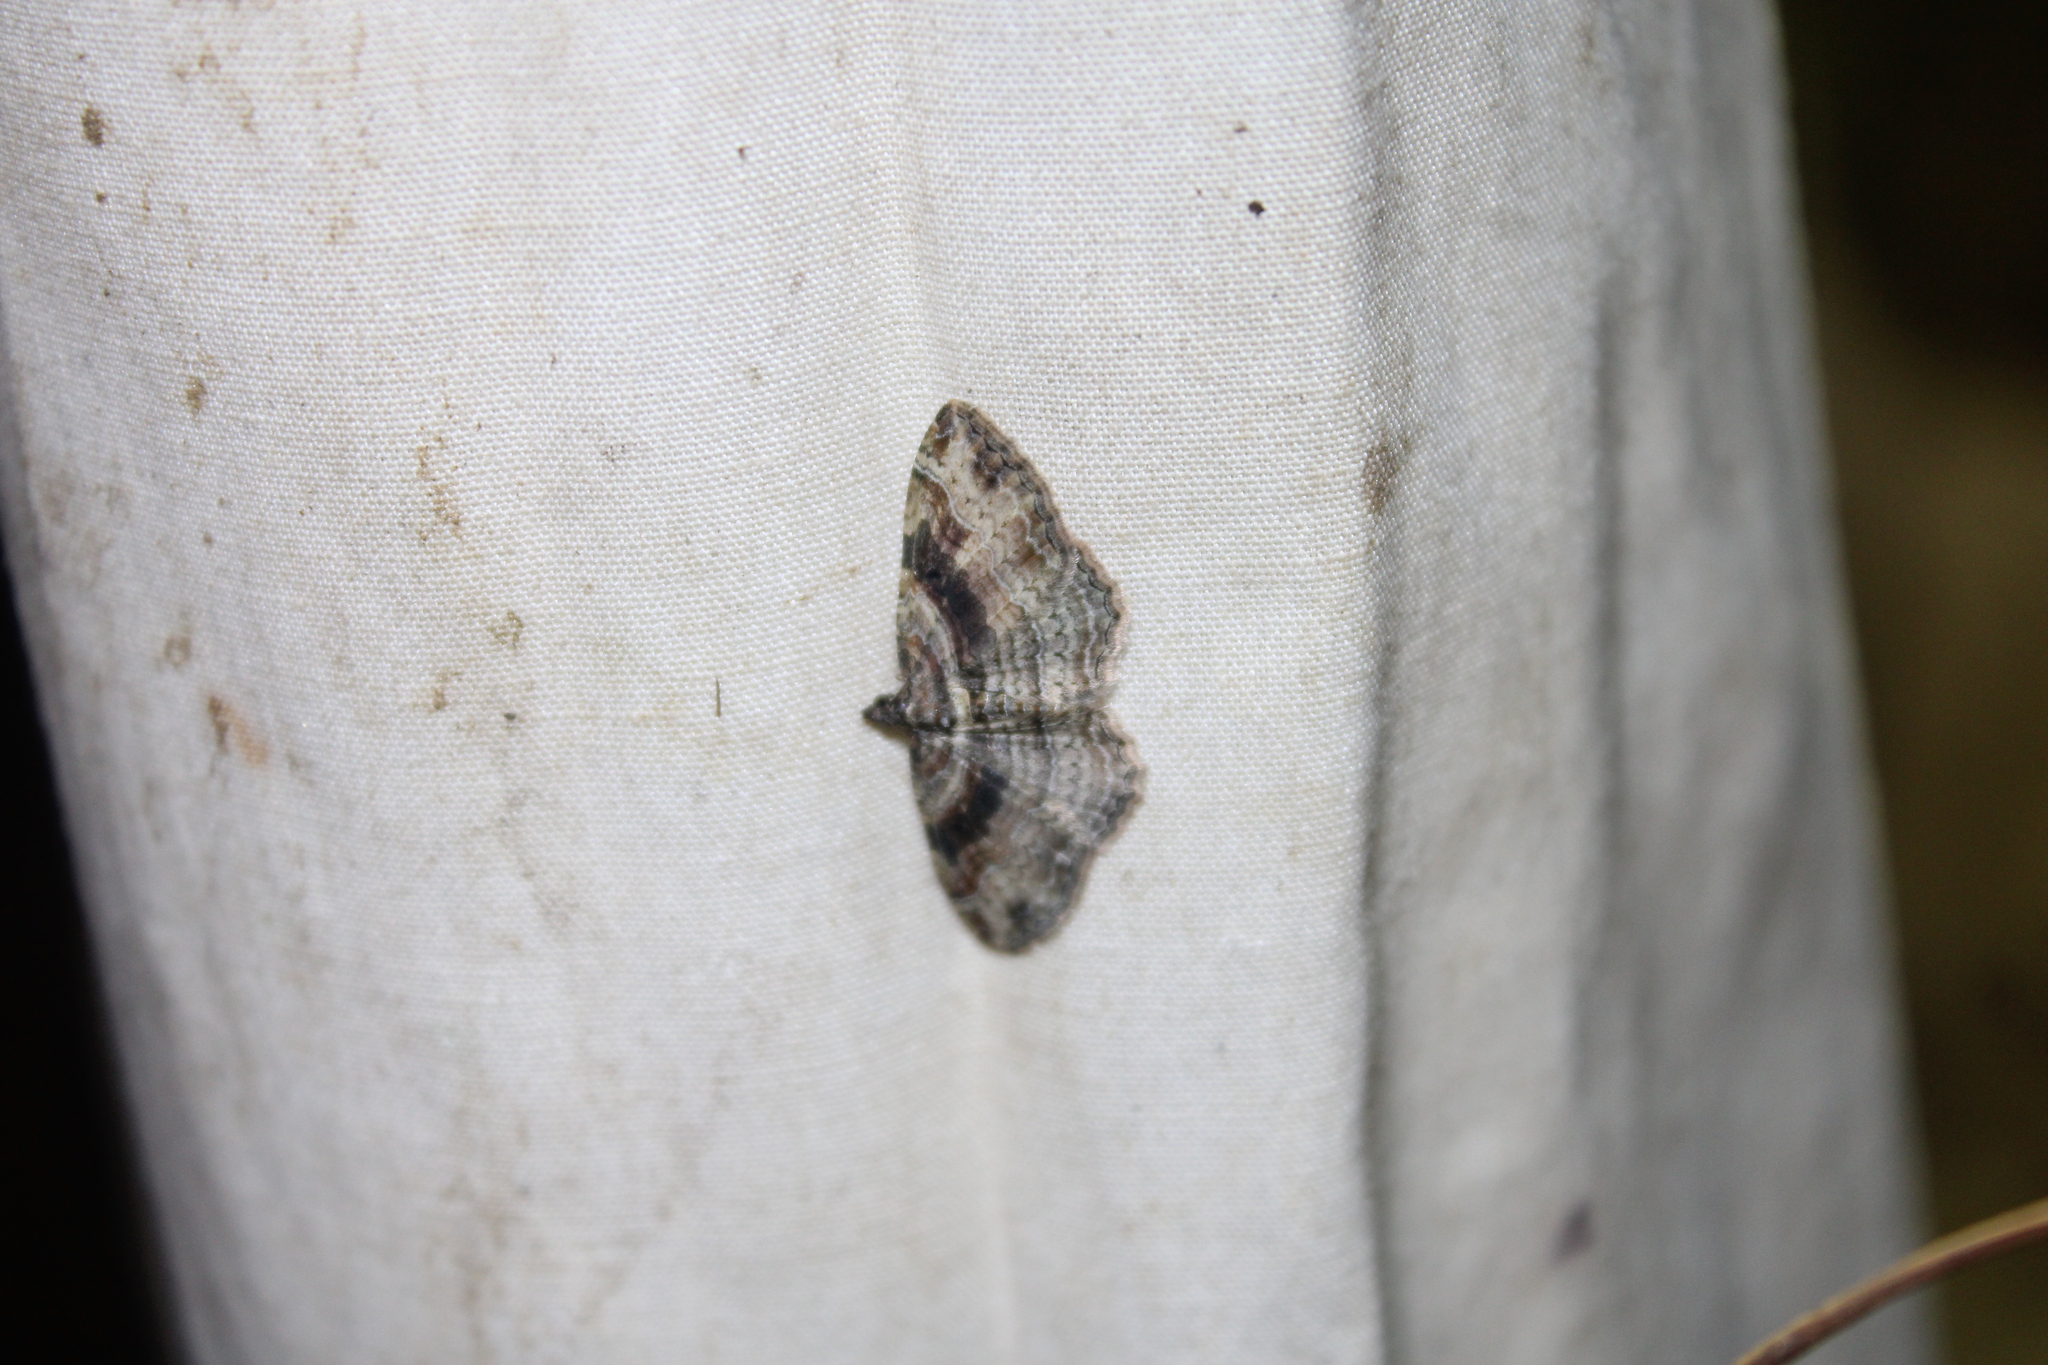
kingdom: Animalia
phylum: Arthropoda
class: Insecta
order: Lepidoptera
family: Geometridae
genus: Costaconvexa
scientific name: Costaconvexa centrostrigaria
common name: Bent-line carpet
